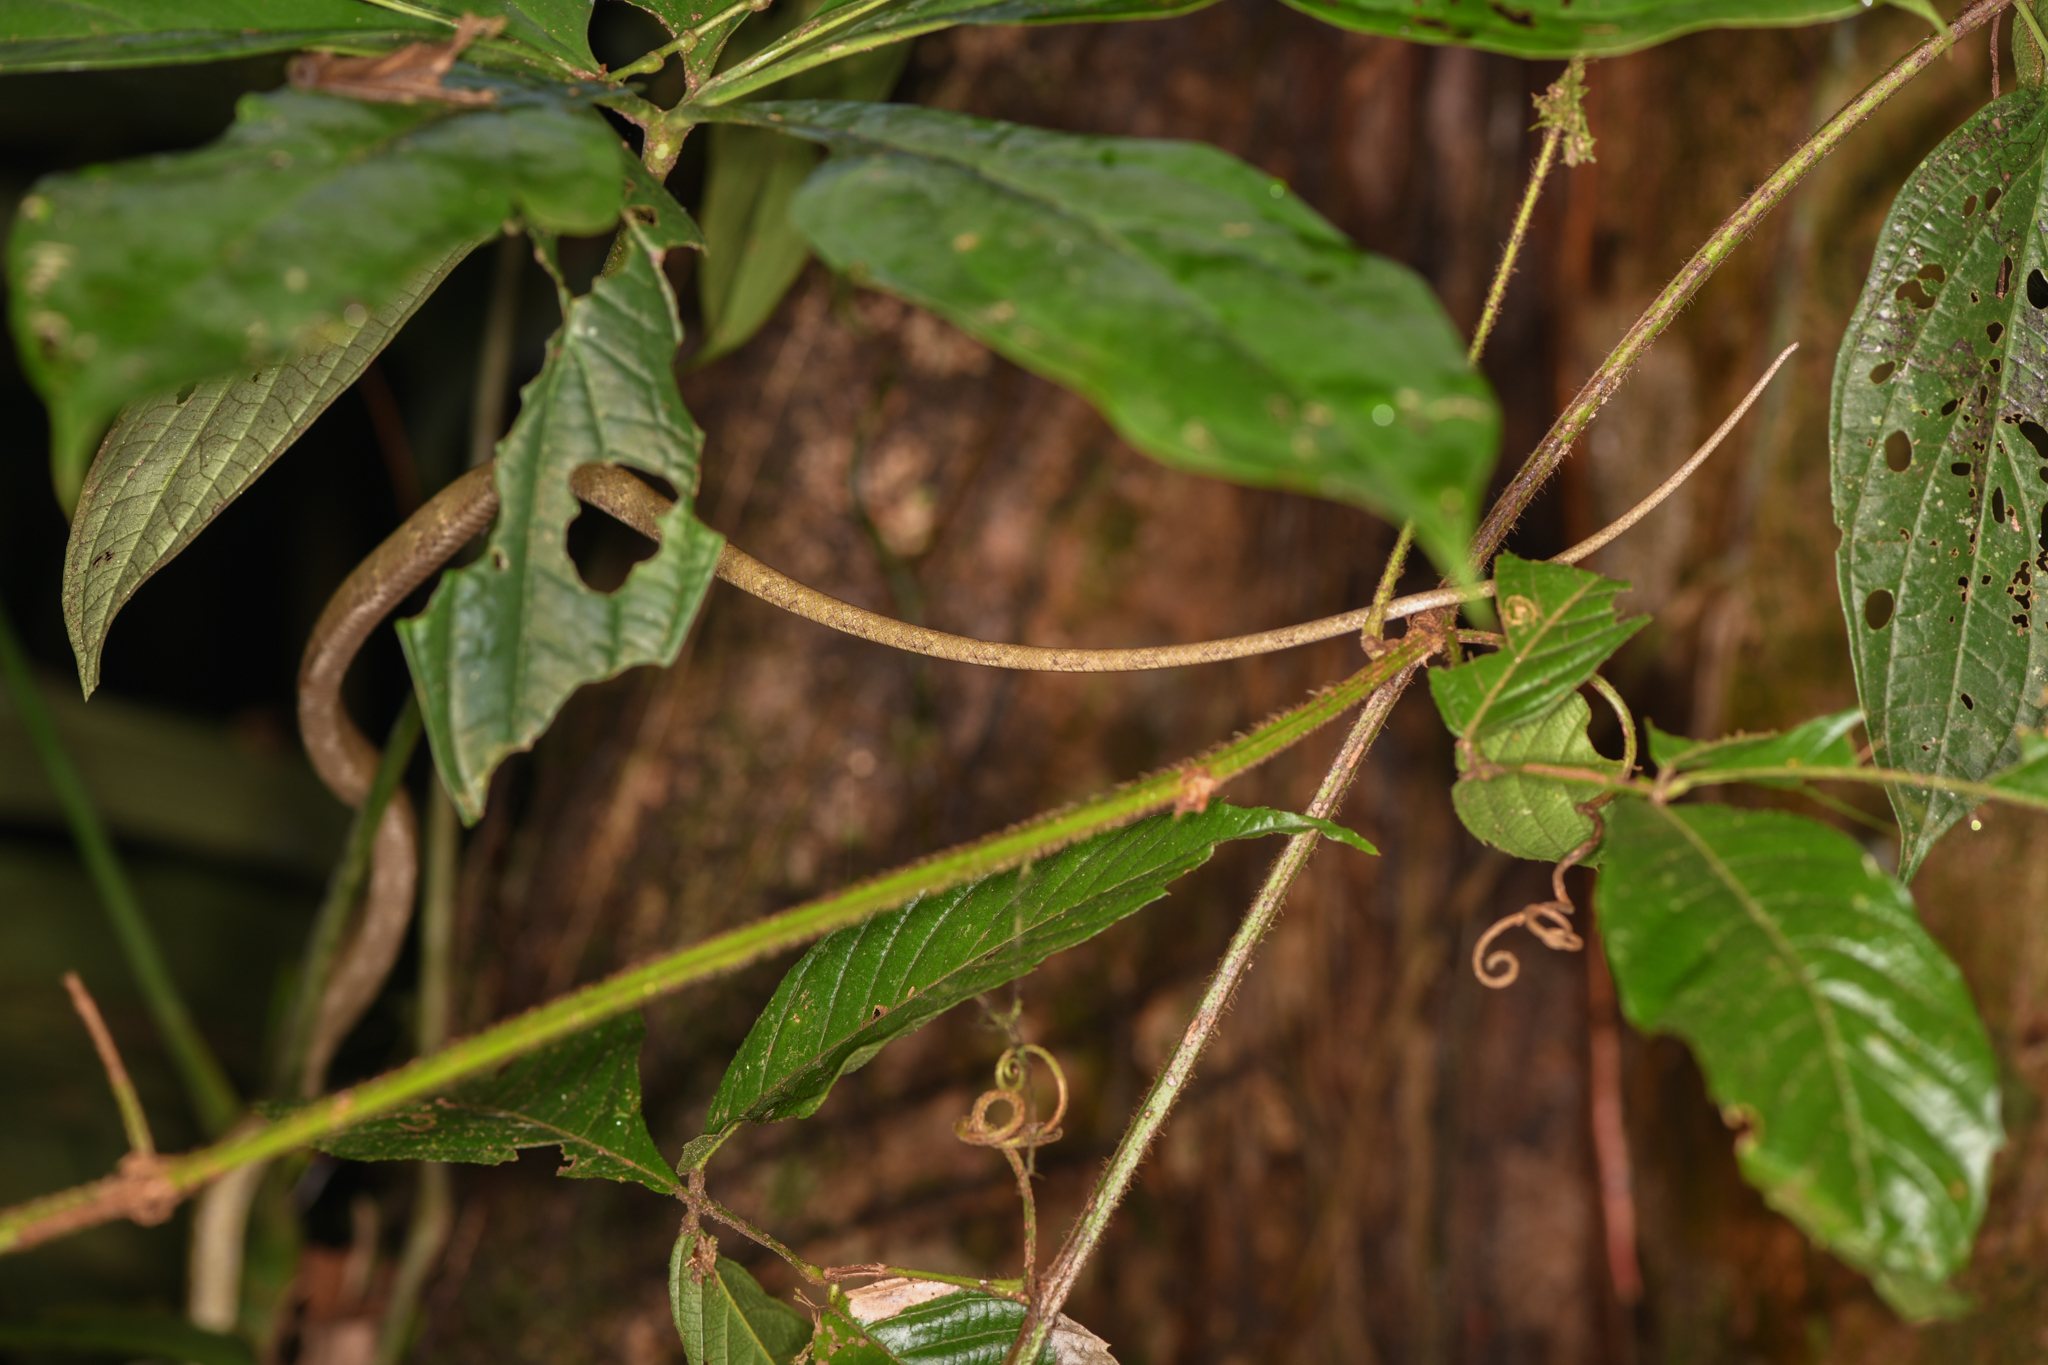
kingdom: Animalia
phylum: Chordata
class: Squamata
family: Colubridae
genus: Phrynonax
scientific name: Phrynonax poecilonotus
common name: Puffing snake
